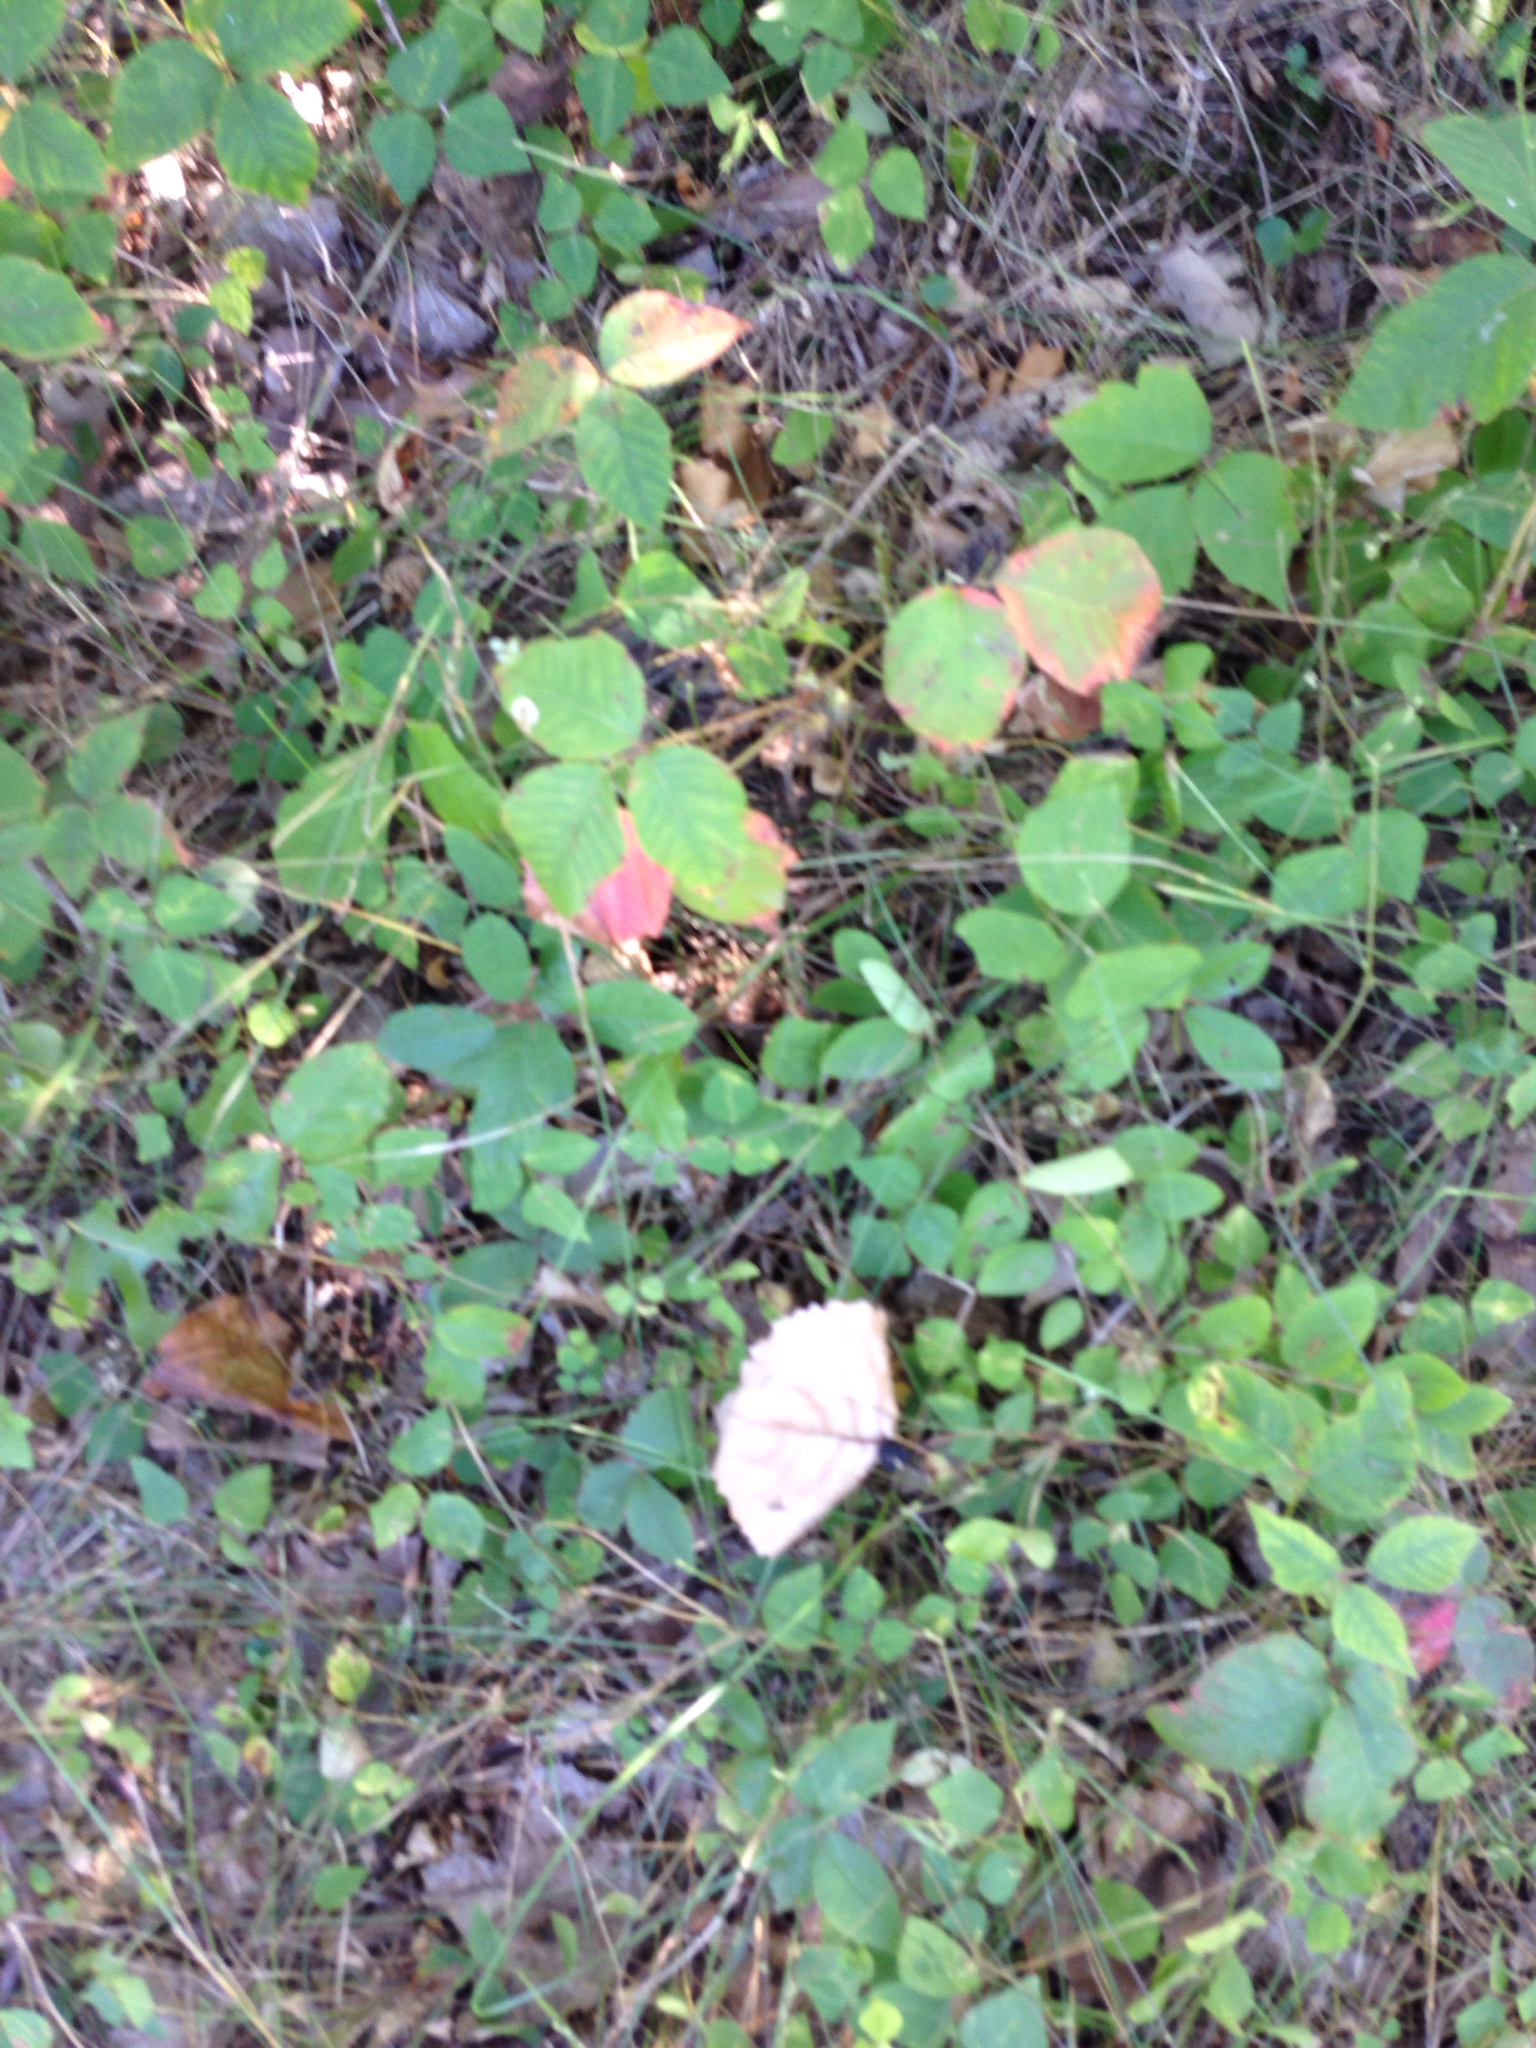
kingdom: Plantae
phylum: Tracheophyta
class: Magnoliopsida
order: Sapindales
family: Anacardiaceae
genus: Toxicodendron
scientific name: Toxicodendron radicans
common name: Poison ivy
